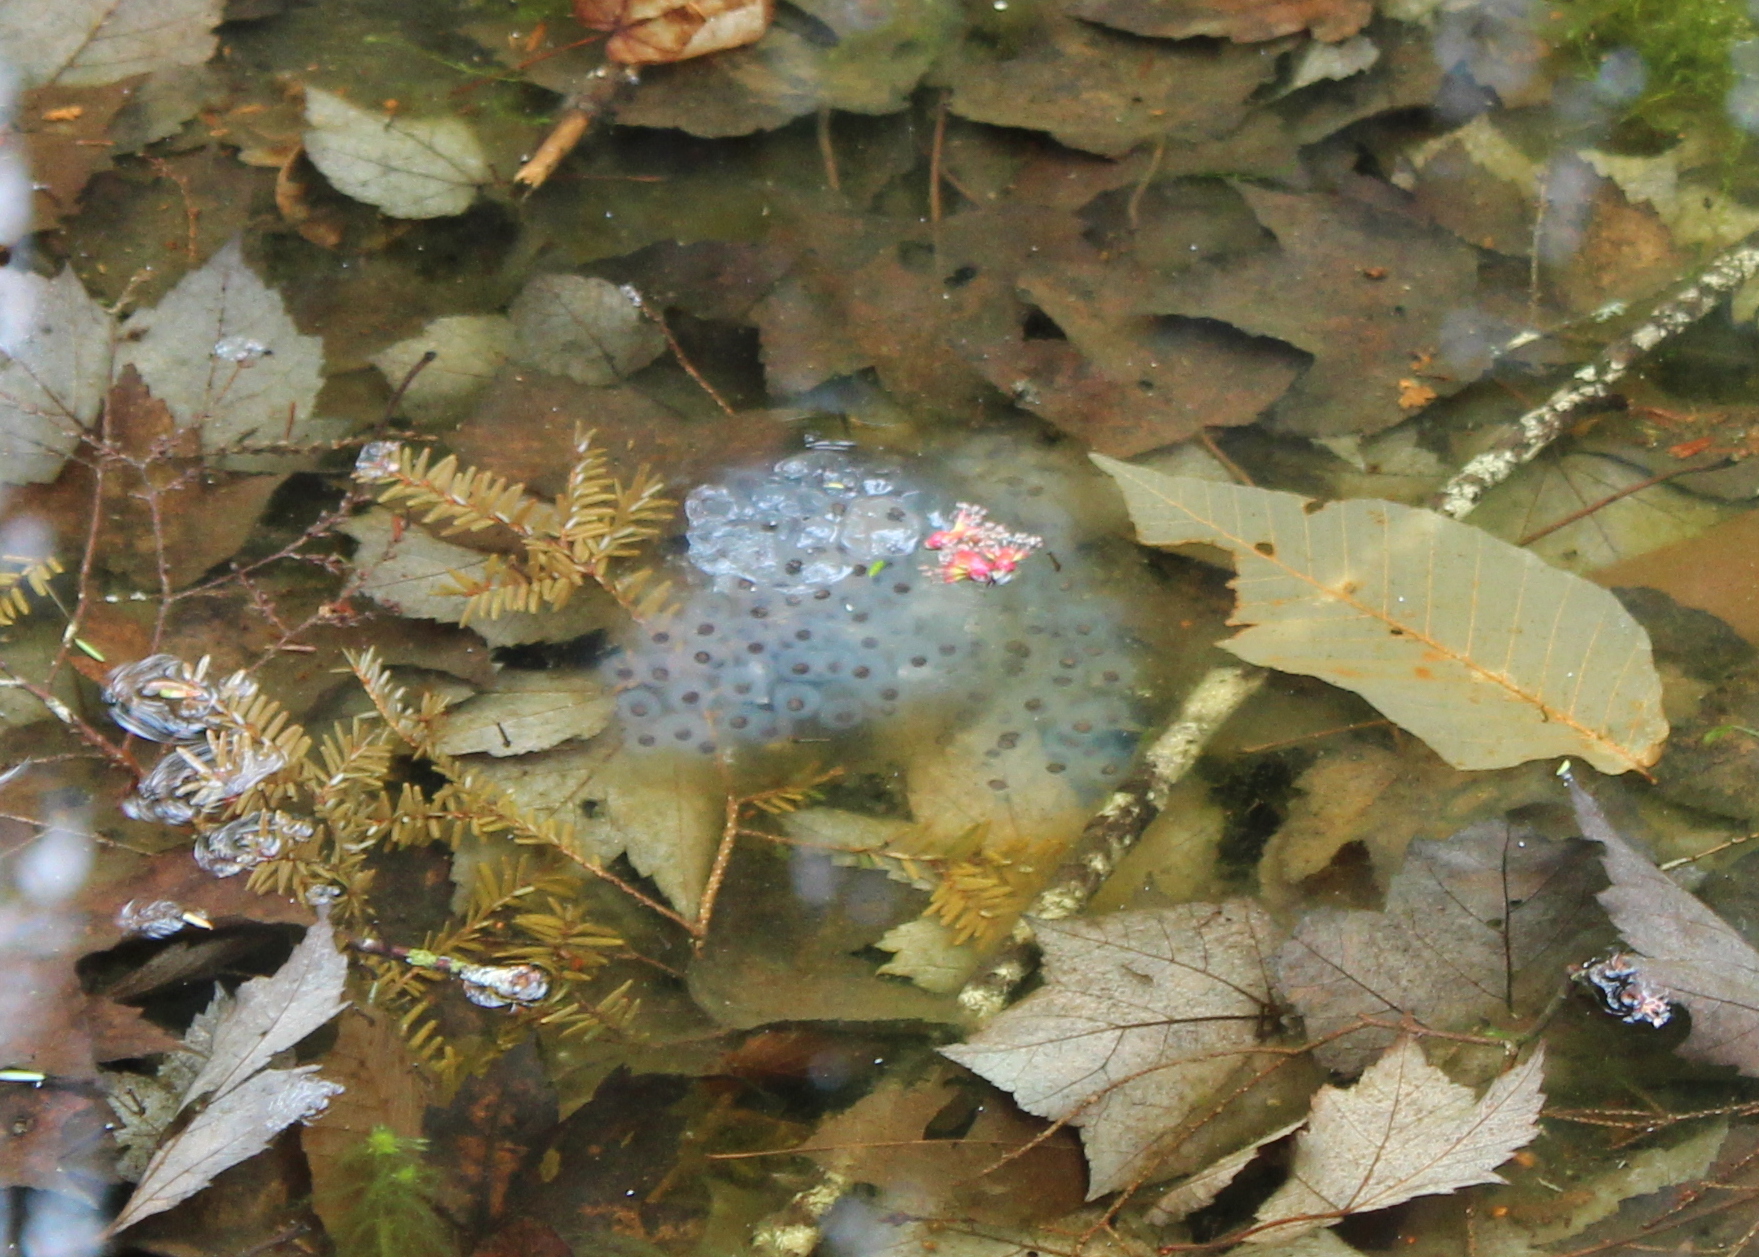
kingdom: Animalia
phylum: Chordata
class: Amphibia
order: Caudata
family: Ambystomatidae
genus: Ambystoma
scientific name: Ambystoma maculatum
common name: Spotted salamander
